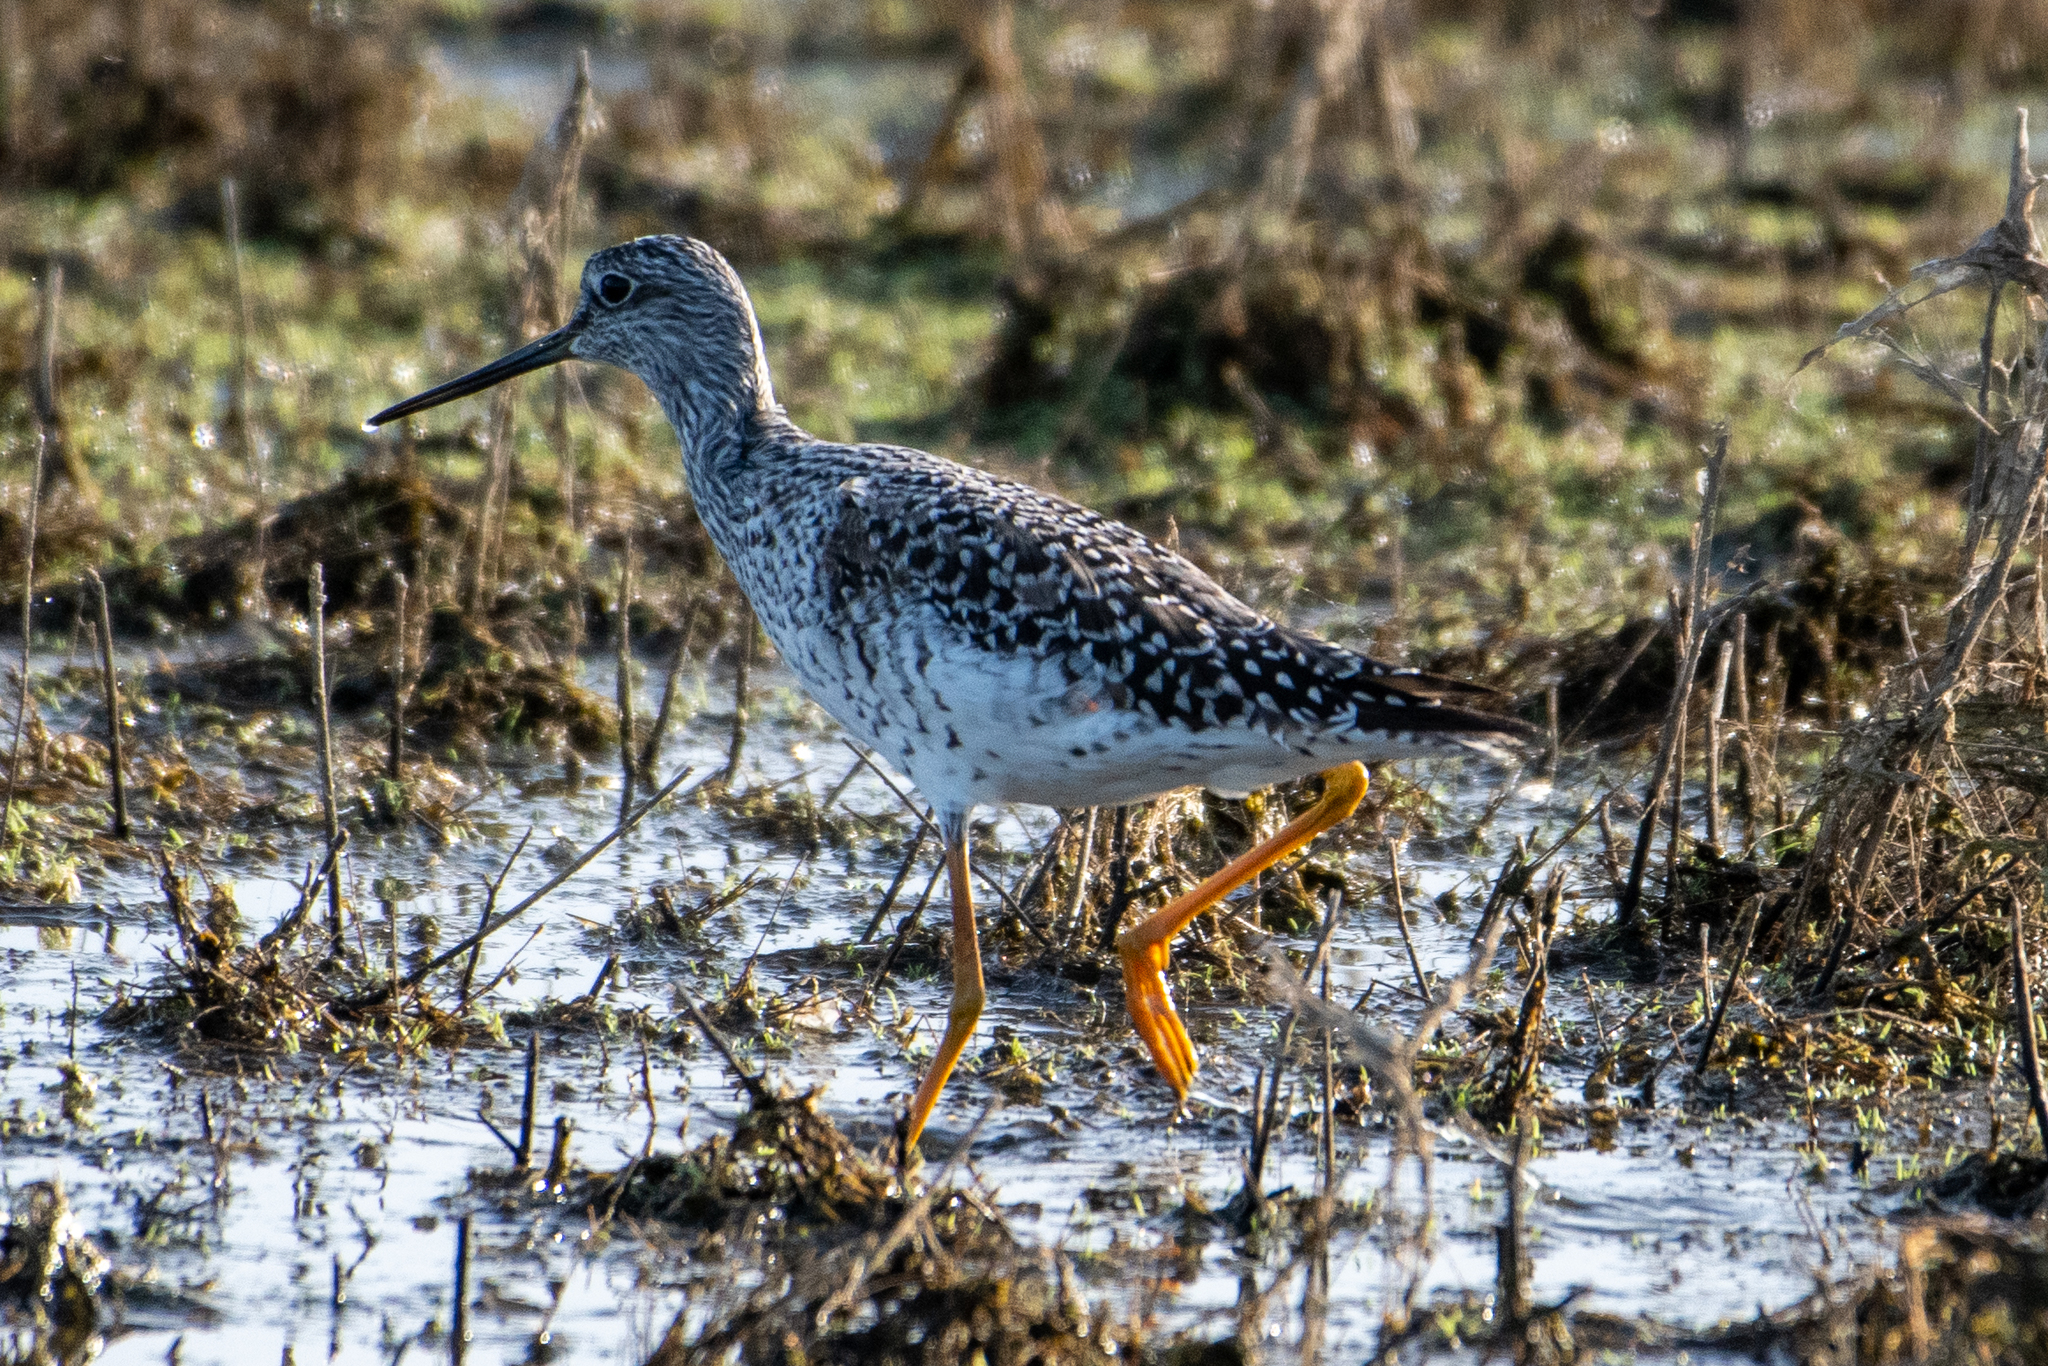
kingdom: Animalia
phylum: Chordata
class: Aves
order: Charadriiformes
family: Scolopacidae
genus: Tringa
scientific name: Tringa melanoleuca
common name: Greater yellowlegs
